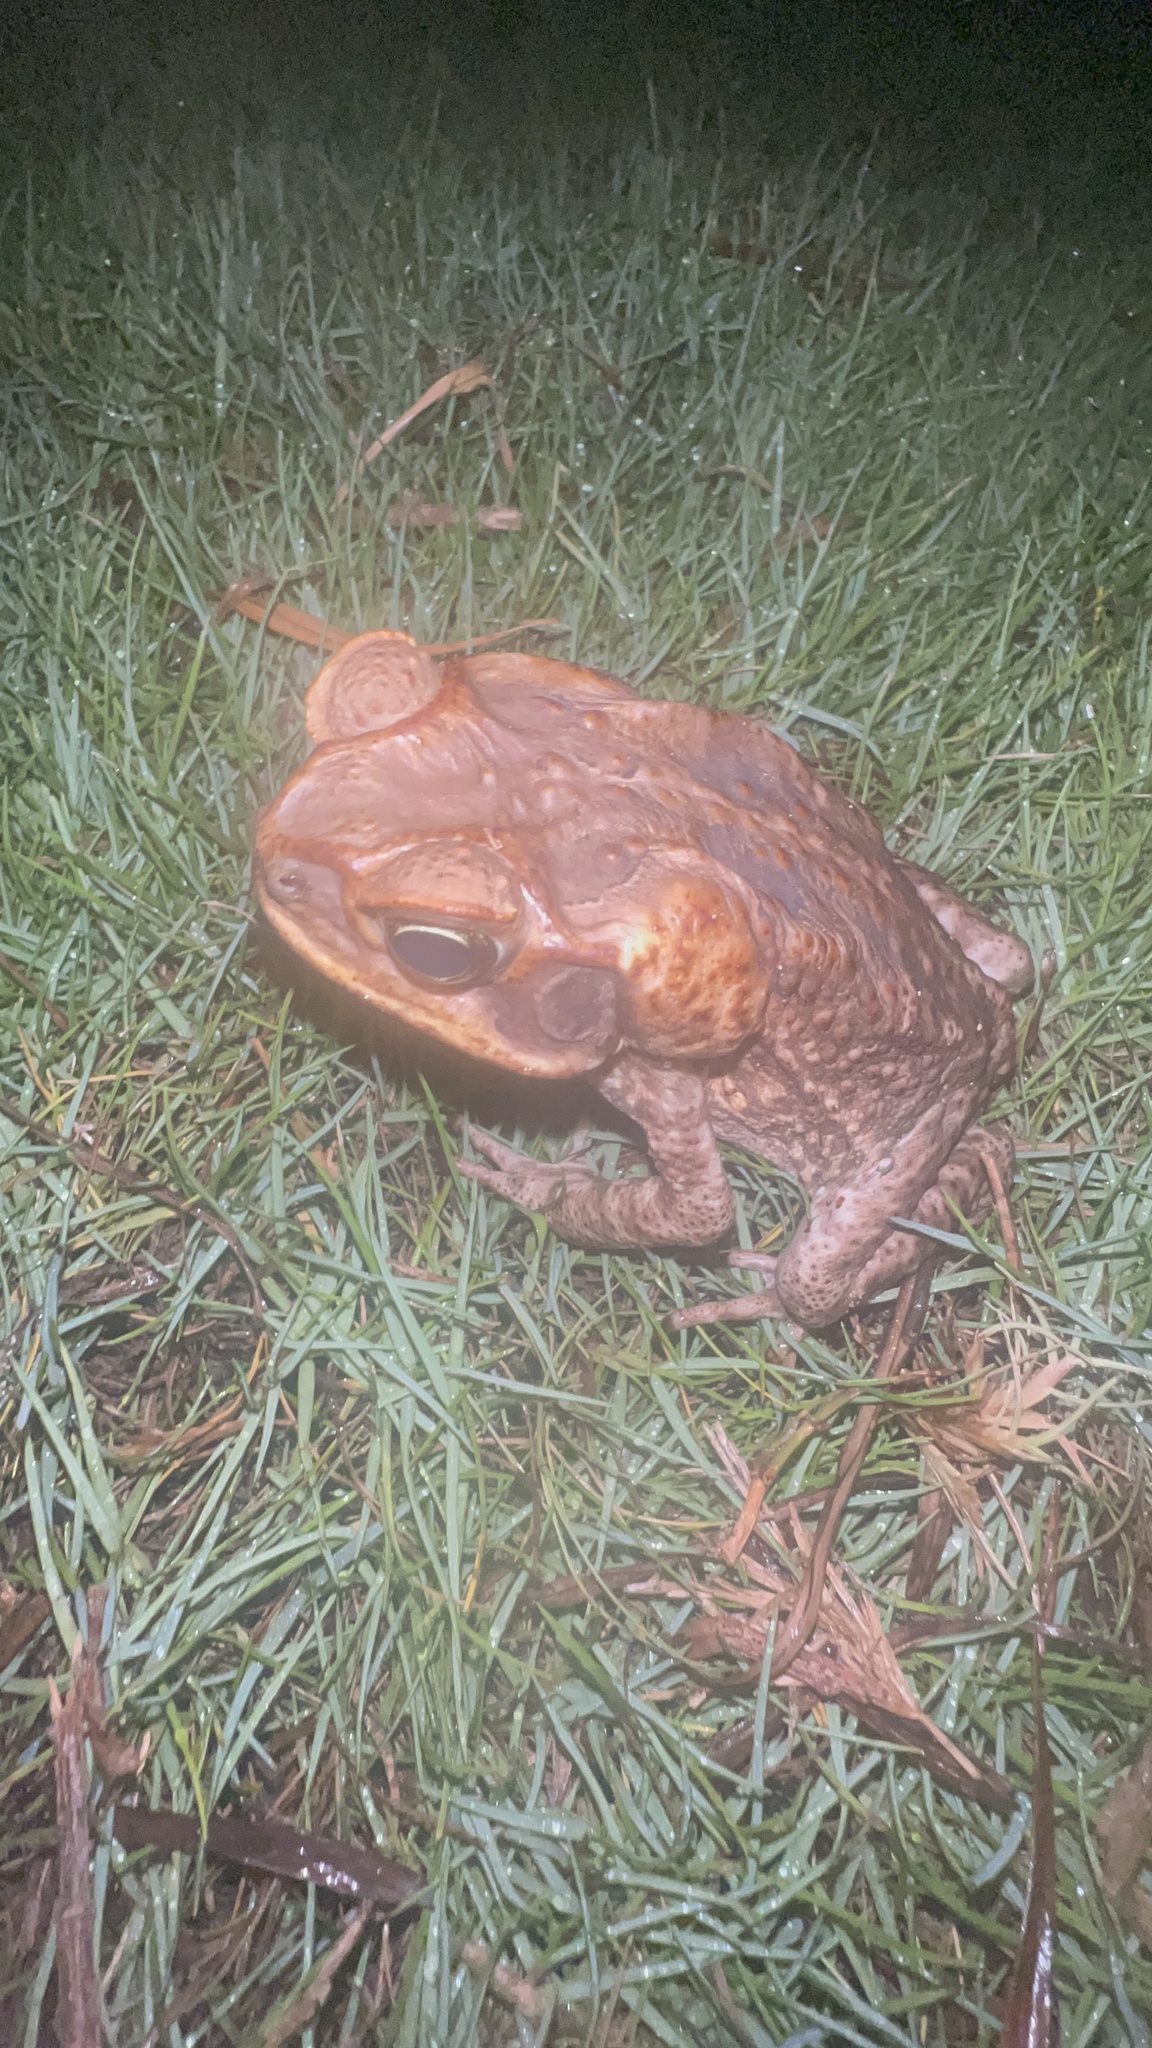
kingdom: Animalia
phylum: Chordata
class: Amphibia
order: Anura
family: Bufonidae
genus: Rhinella
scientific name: Rhinella marina
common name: Cane toad
